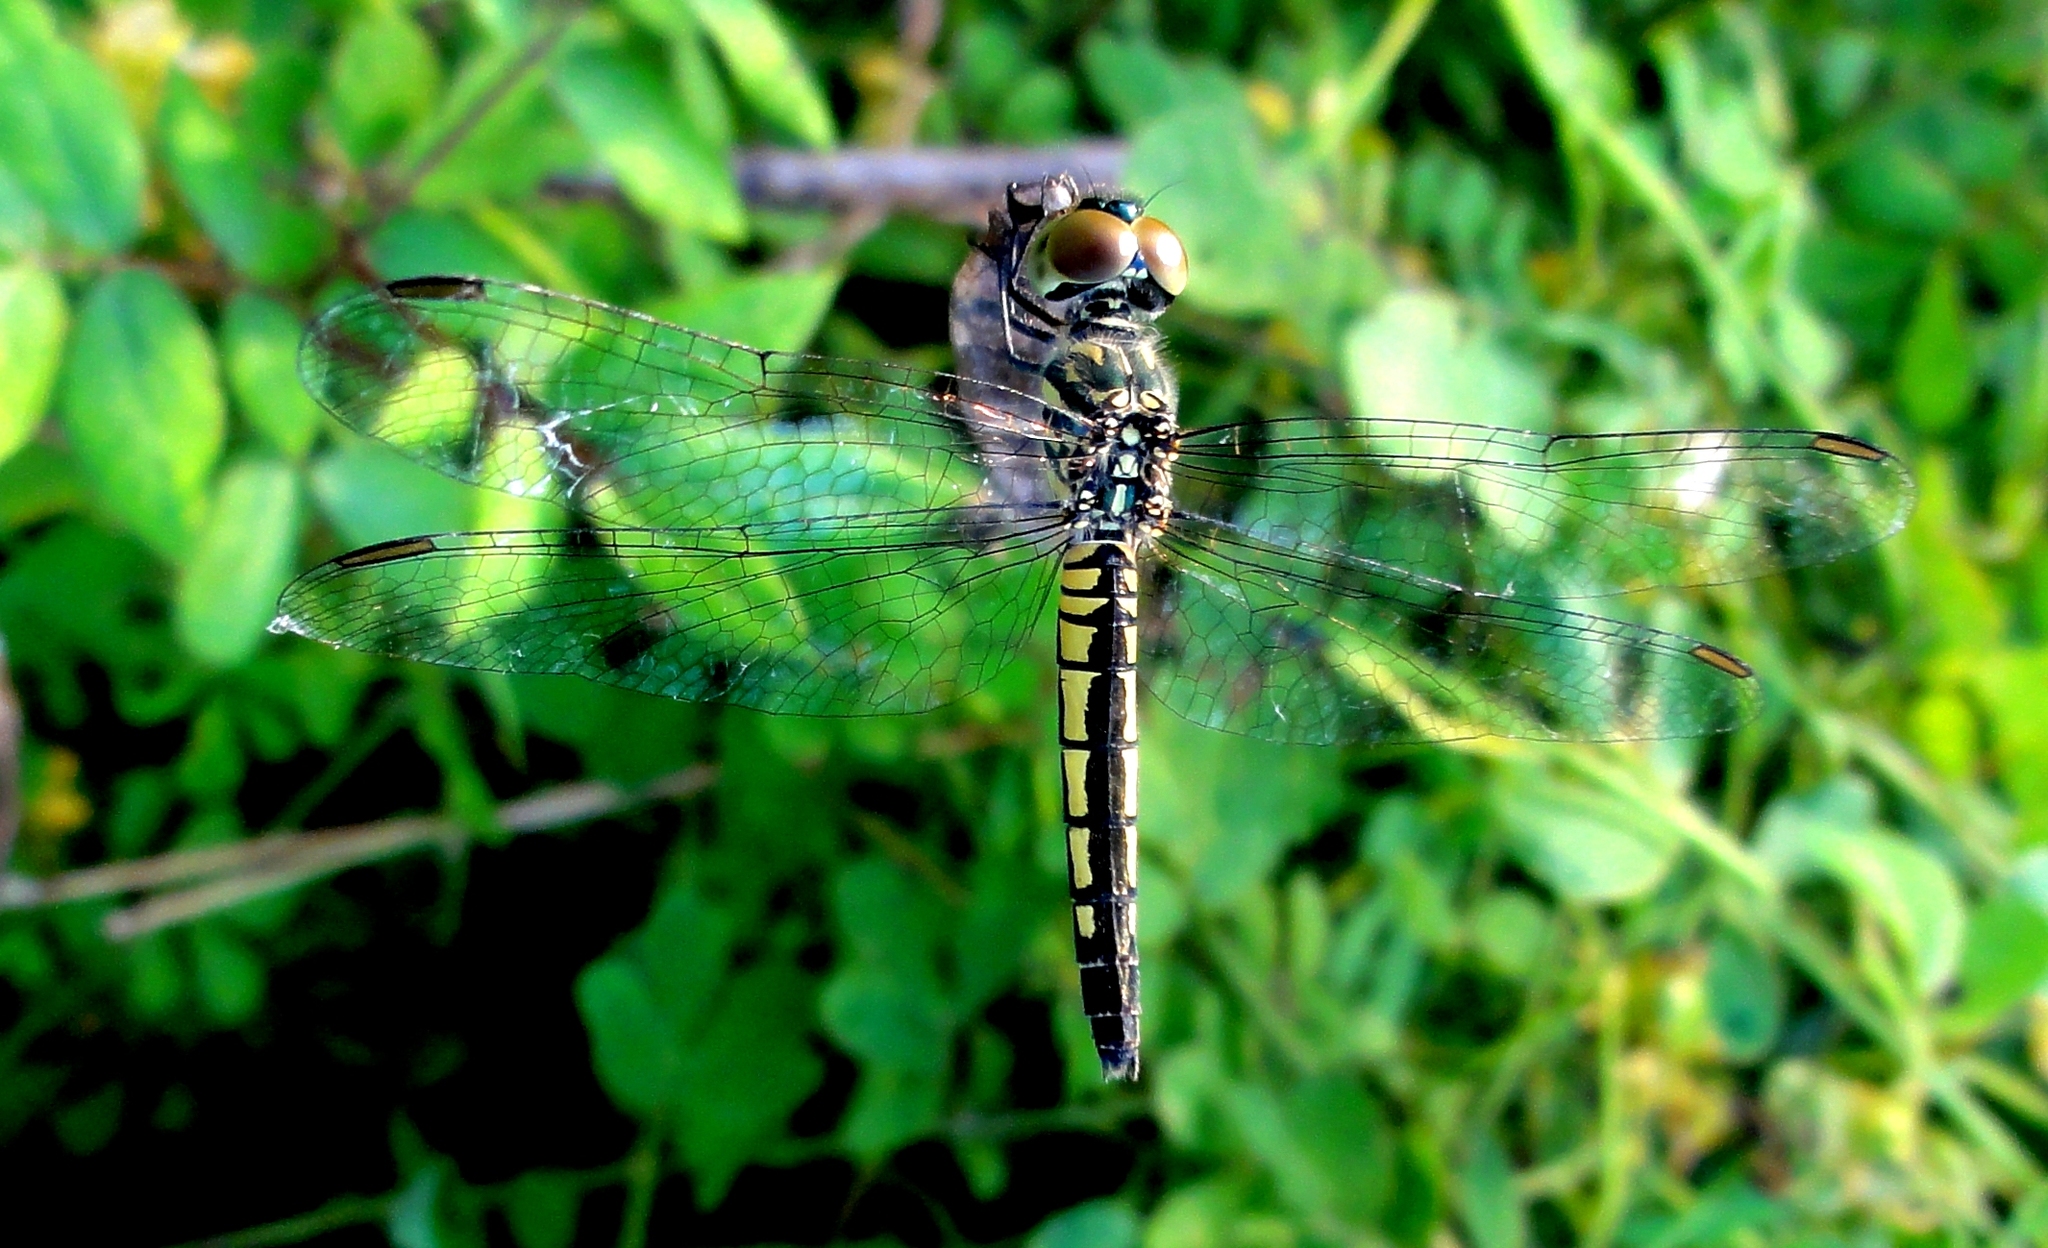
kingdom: Animalia
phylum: Arthropoda
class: Insecta
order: Odonata
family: Libellulidae
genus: Diplacodes
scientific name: Diplacodes nebulosa
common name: Black-tipped percher
